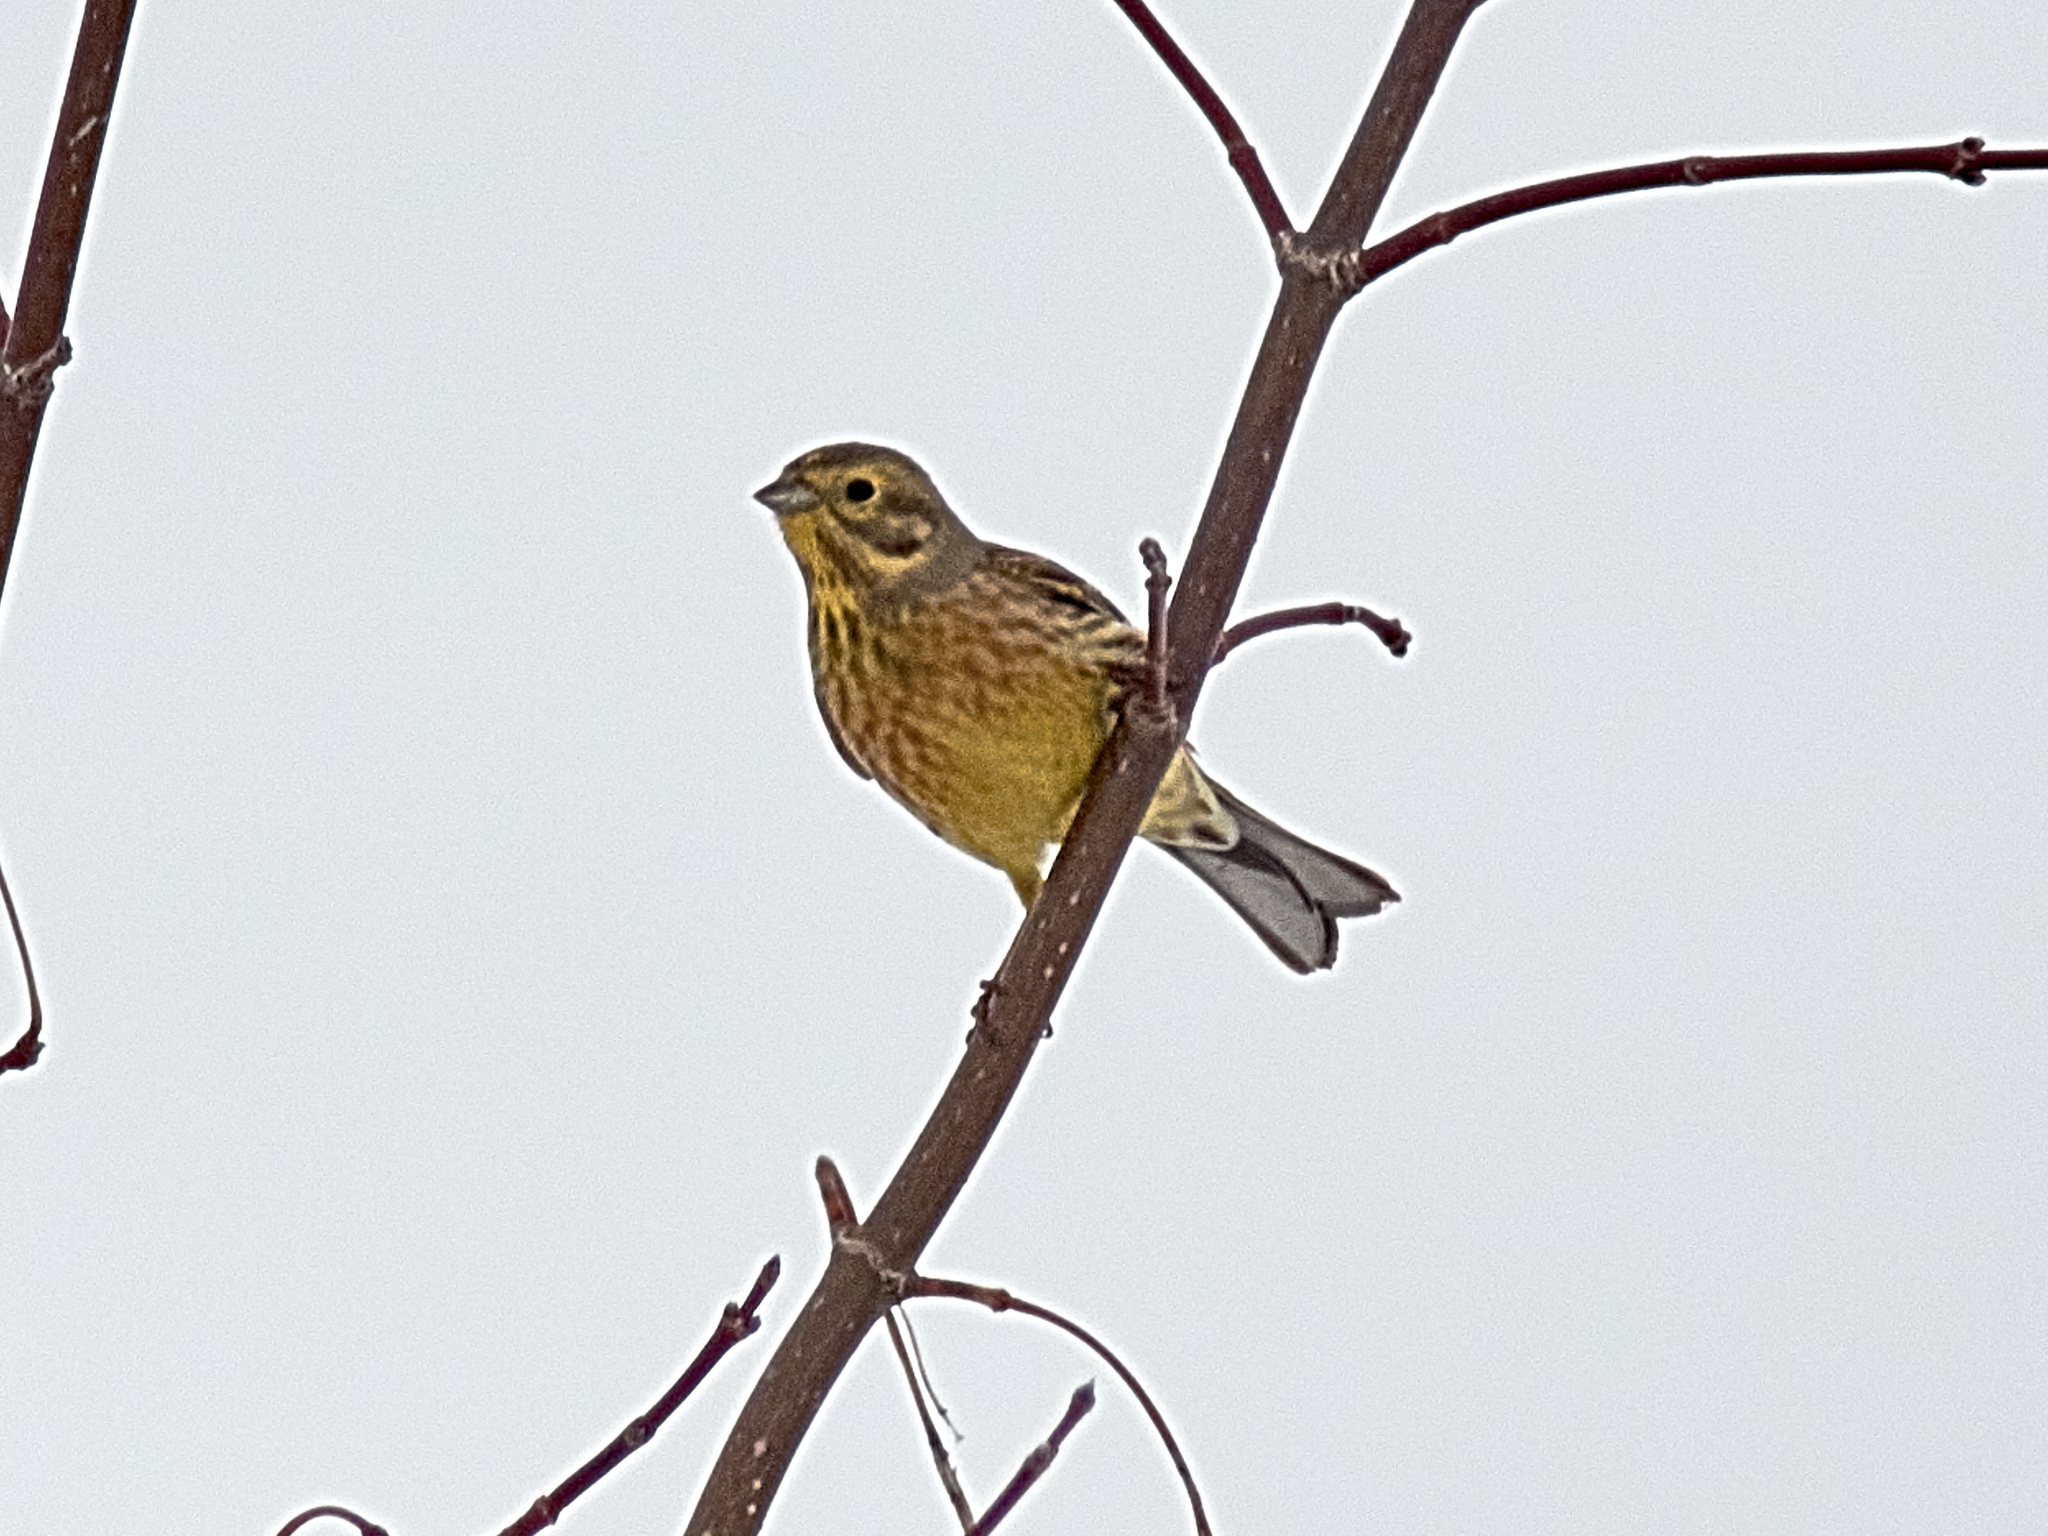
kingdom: Animalia
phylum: Chordata
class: Aves
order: Passeriformes
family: Emberizidae
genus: Emberiza
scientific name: Emberiza citrinella
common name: Yellowhammer
